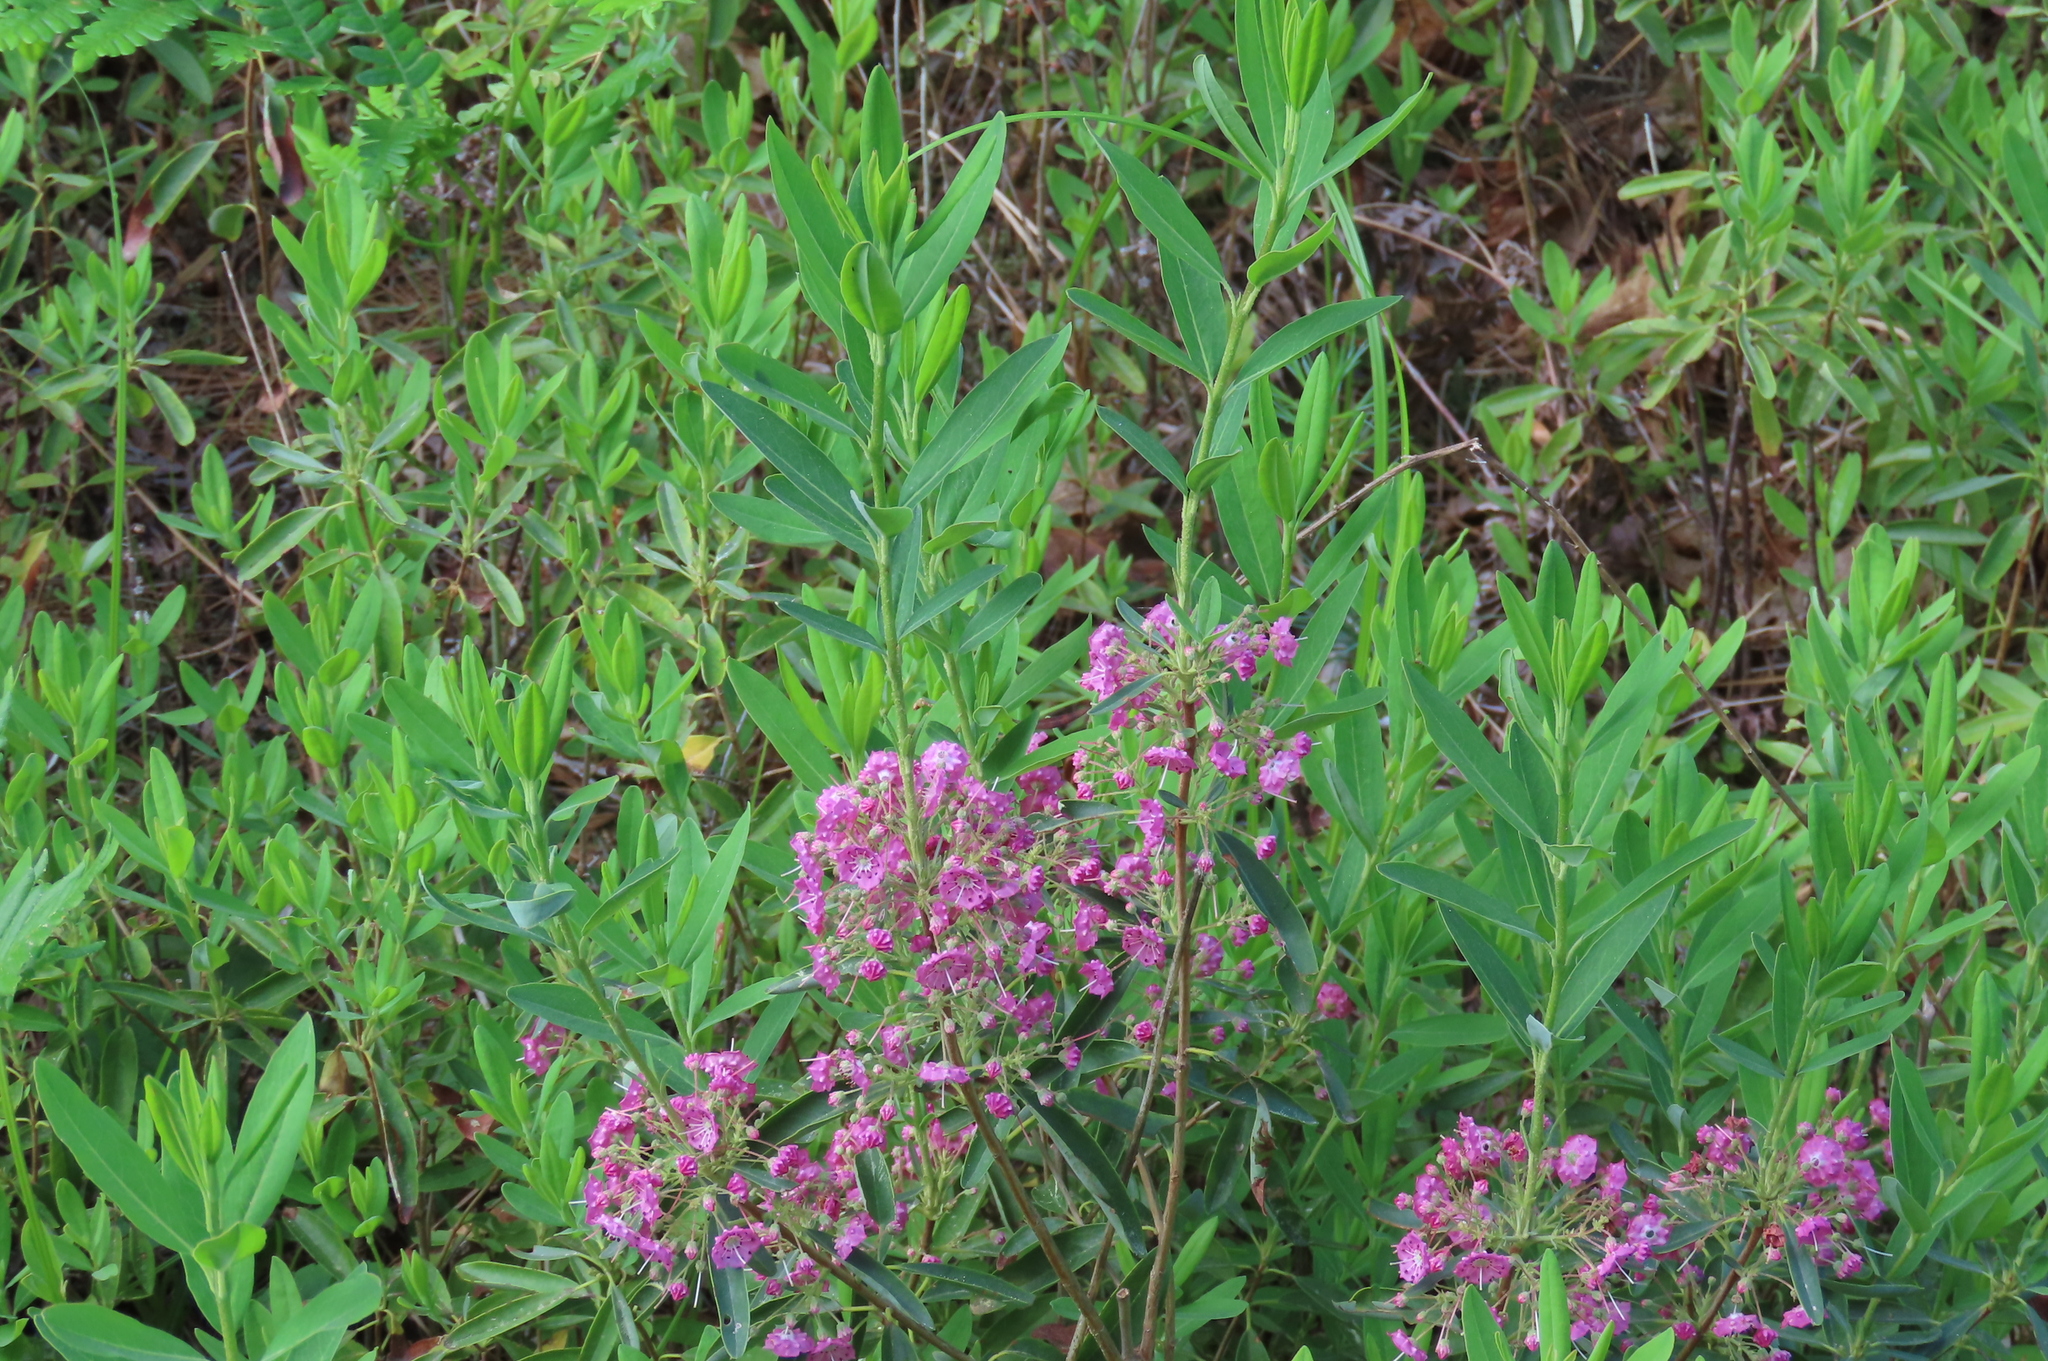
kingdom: Plantae
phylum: Tracheophyta
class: Magnoliopsida
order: Ericales
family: Ericaceae
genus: Kalmia
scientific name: Kalmia angustifolia
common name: Sheep-laurel
